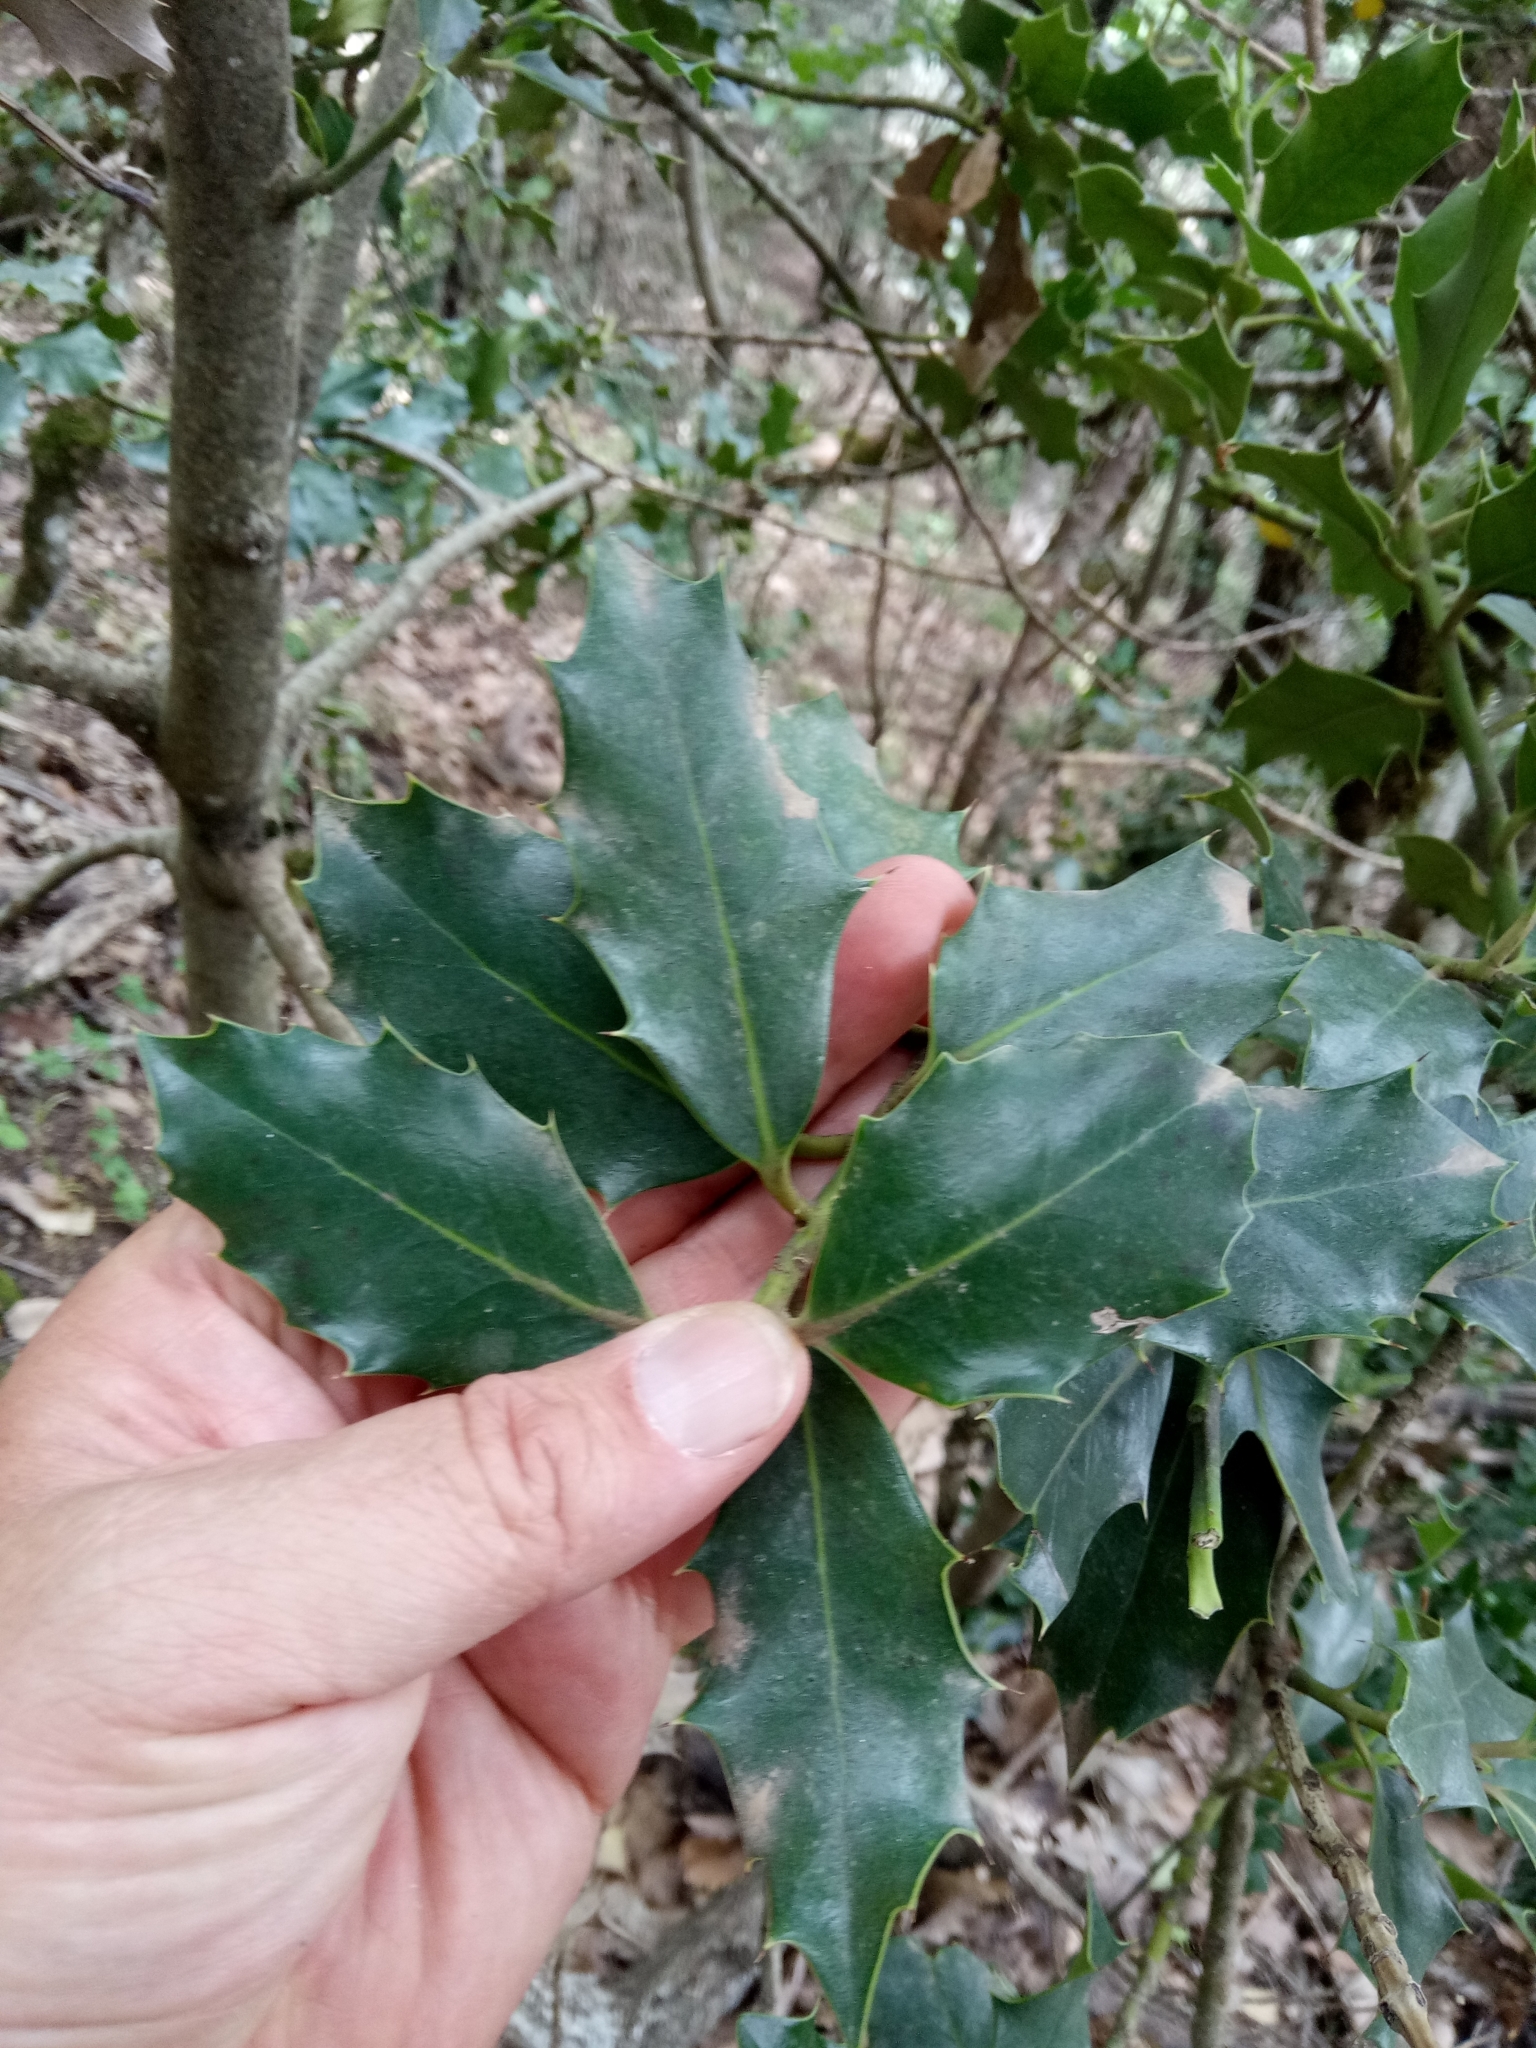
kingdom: Plantae
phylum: Tracheophyta
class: Magnoliopsida
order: Aquifoliales
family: Aquifoliaceae
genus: Ilex
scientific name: Ilex aquifolium
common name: English holly
